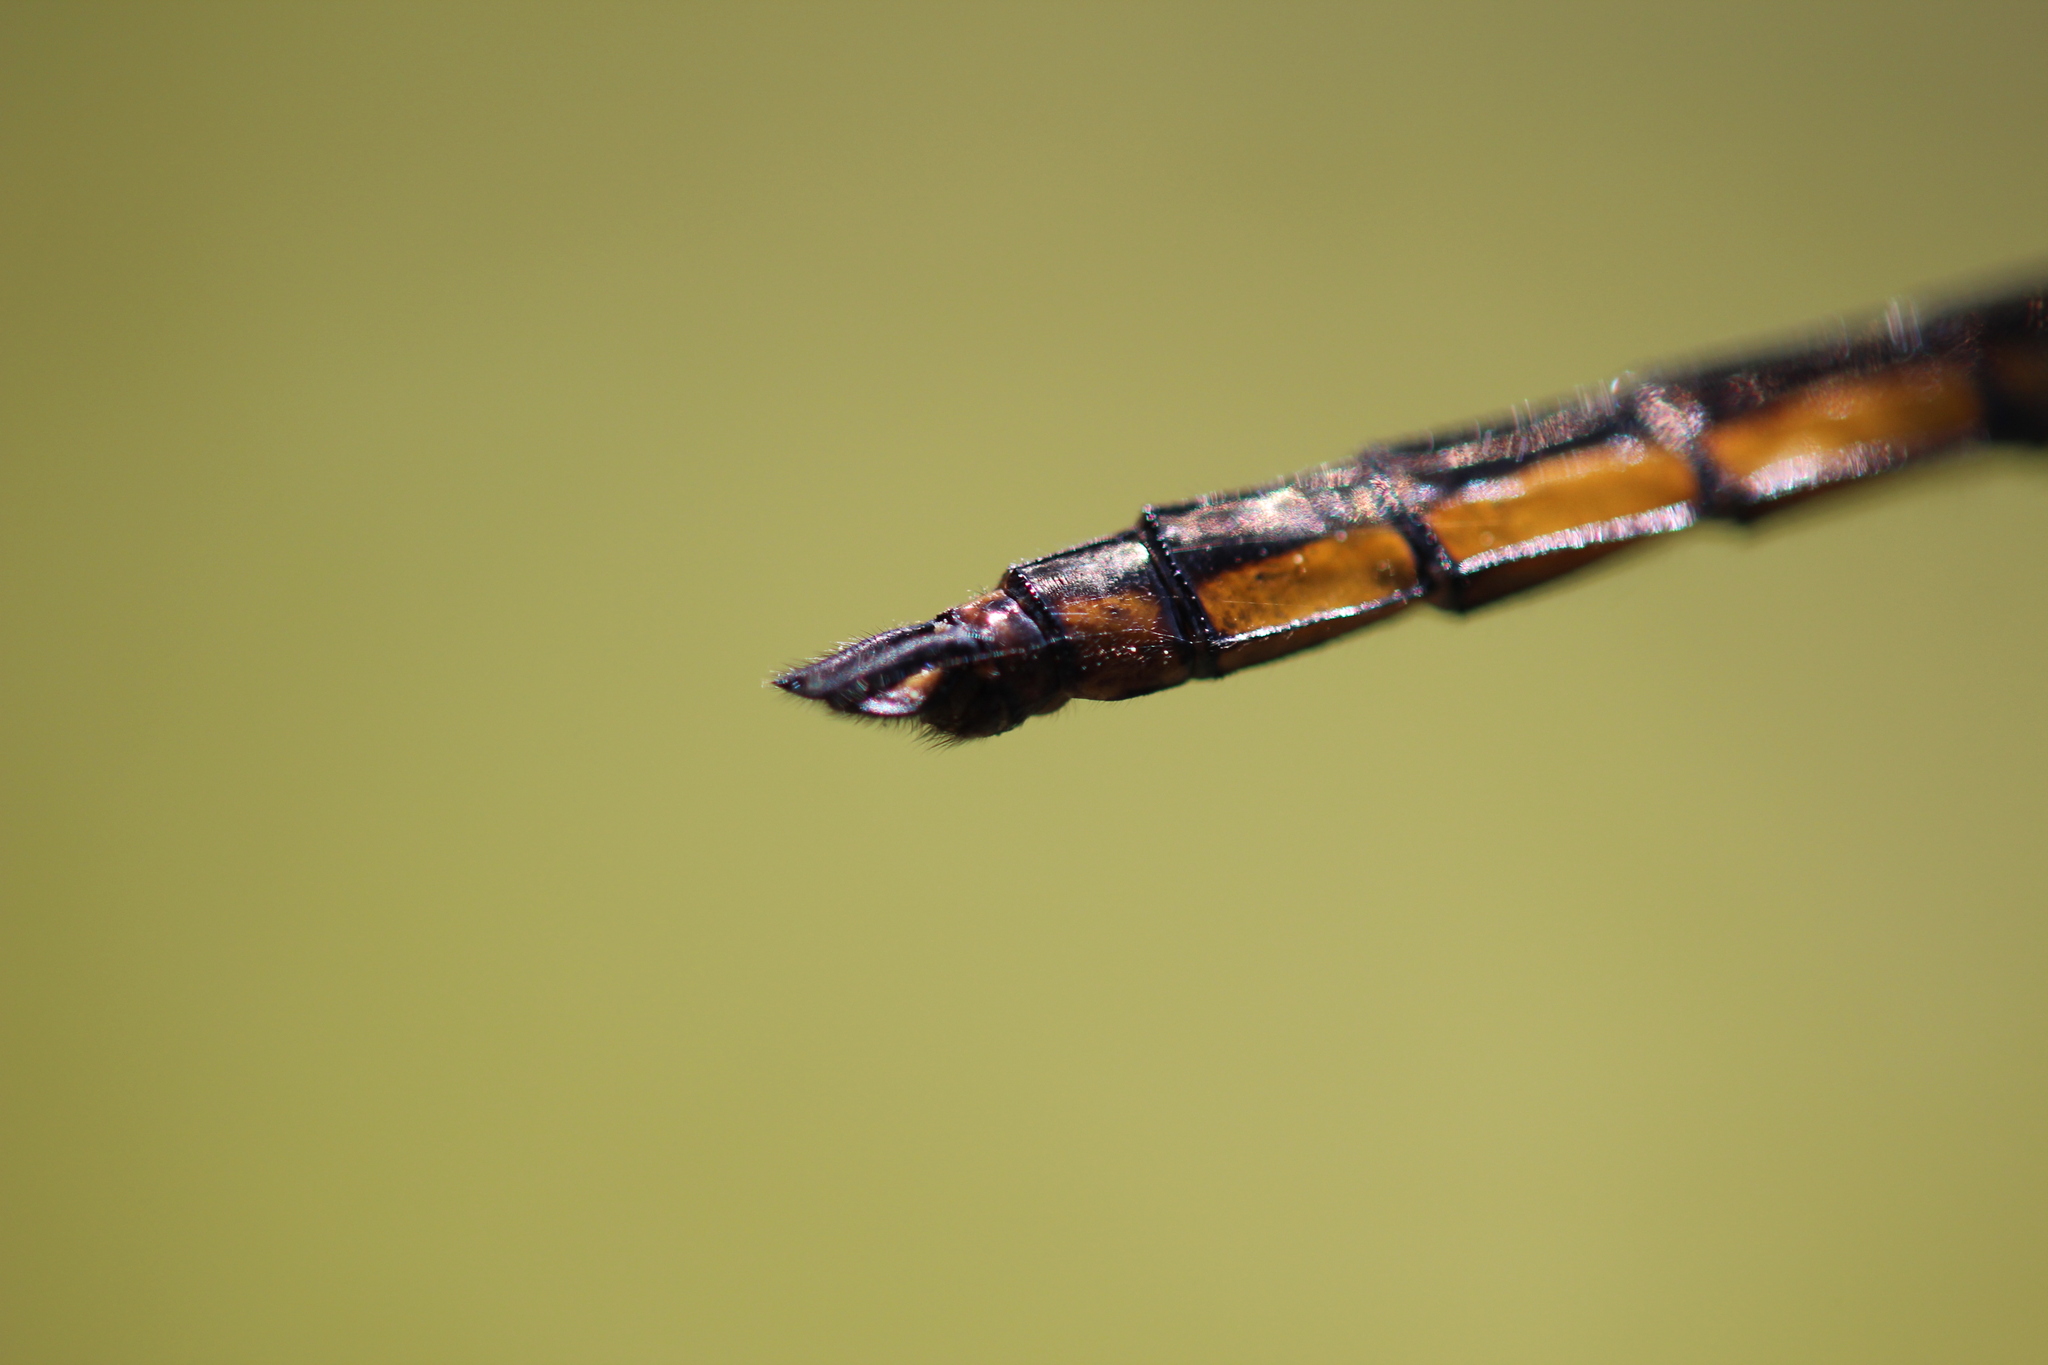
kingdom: Animalia
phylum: Arthropoda
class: Insecta
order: Odonata
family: Libellulidae
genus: Libellula
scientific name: Libellula incesta
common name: Slaty skimmer
